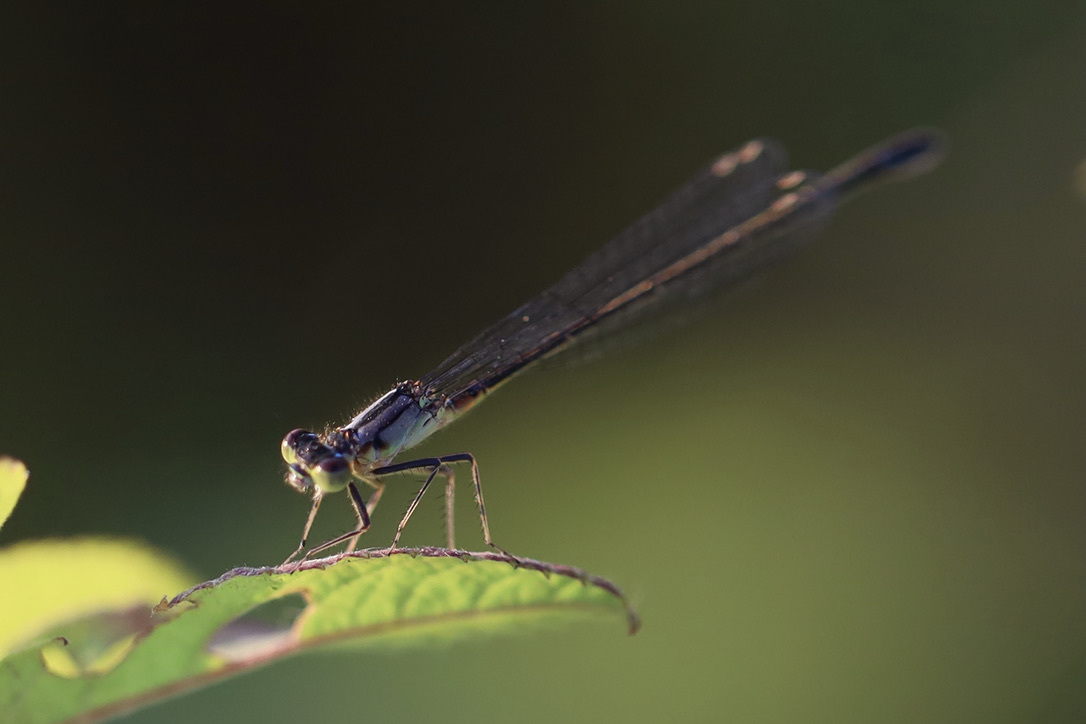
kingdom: Animalia
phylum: Arthropoda
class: Insecta
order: Odonata
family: Coenagrionidae
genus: Ischnura
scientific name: Ischnura cervula
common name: Pacific forktail
